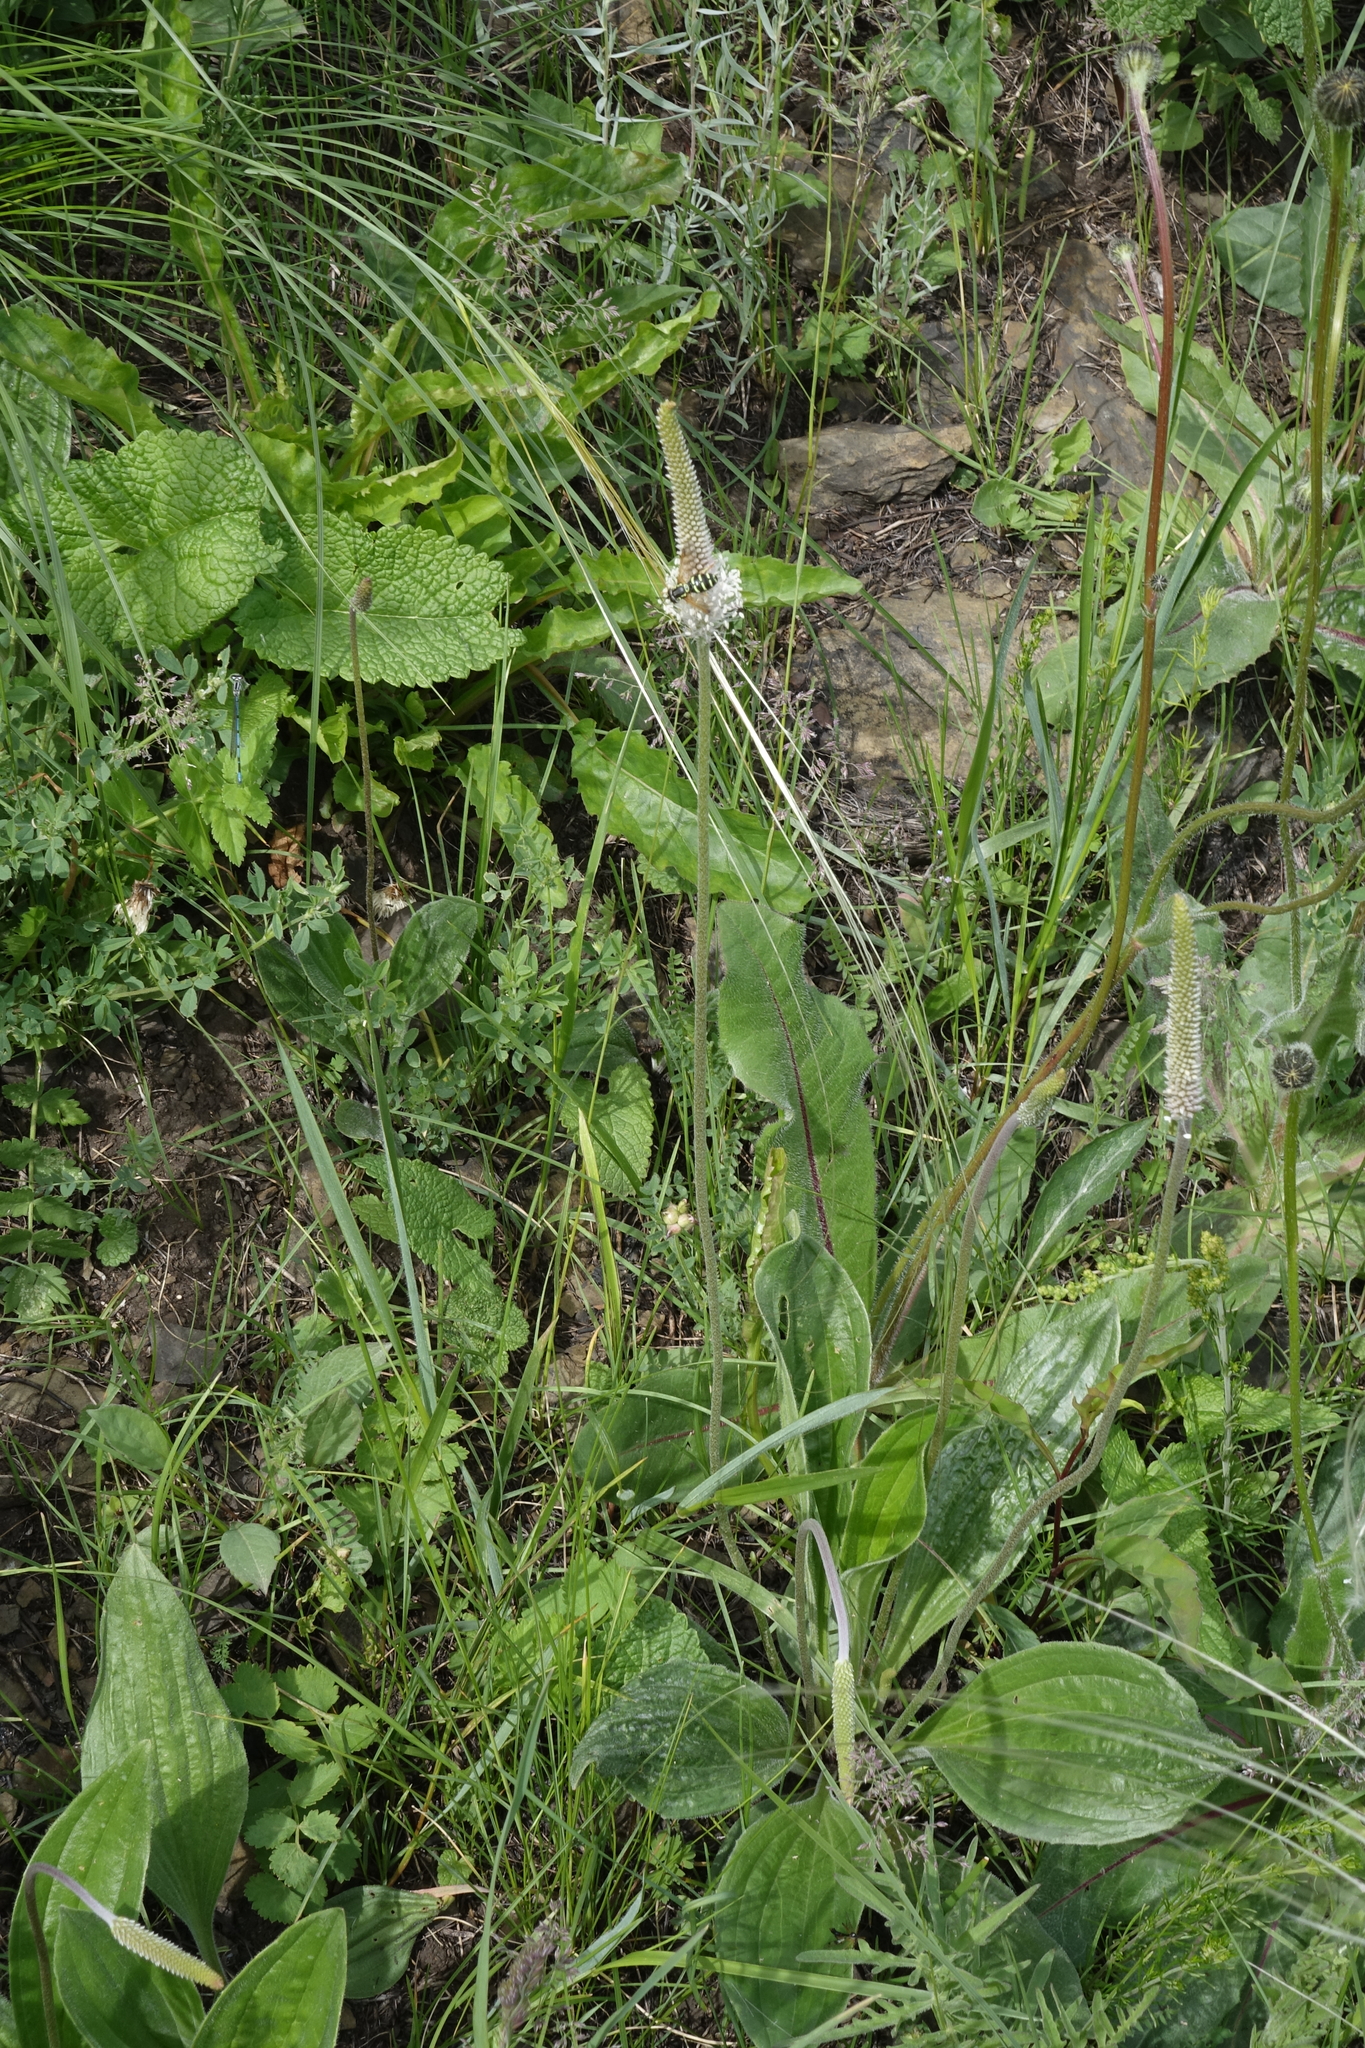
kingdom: Plantae
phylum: Tracheophyta
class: Magnoliopsida
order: Lamiales
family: Plantaginaceae
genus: Plantago
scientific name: Plantago media
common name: Hoary plantain
